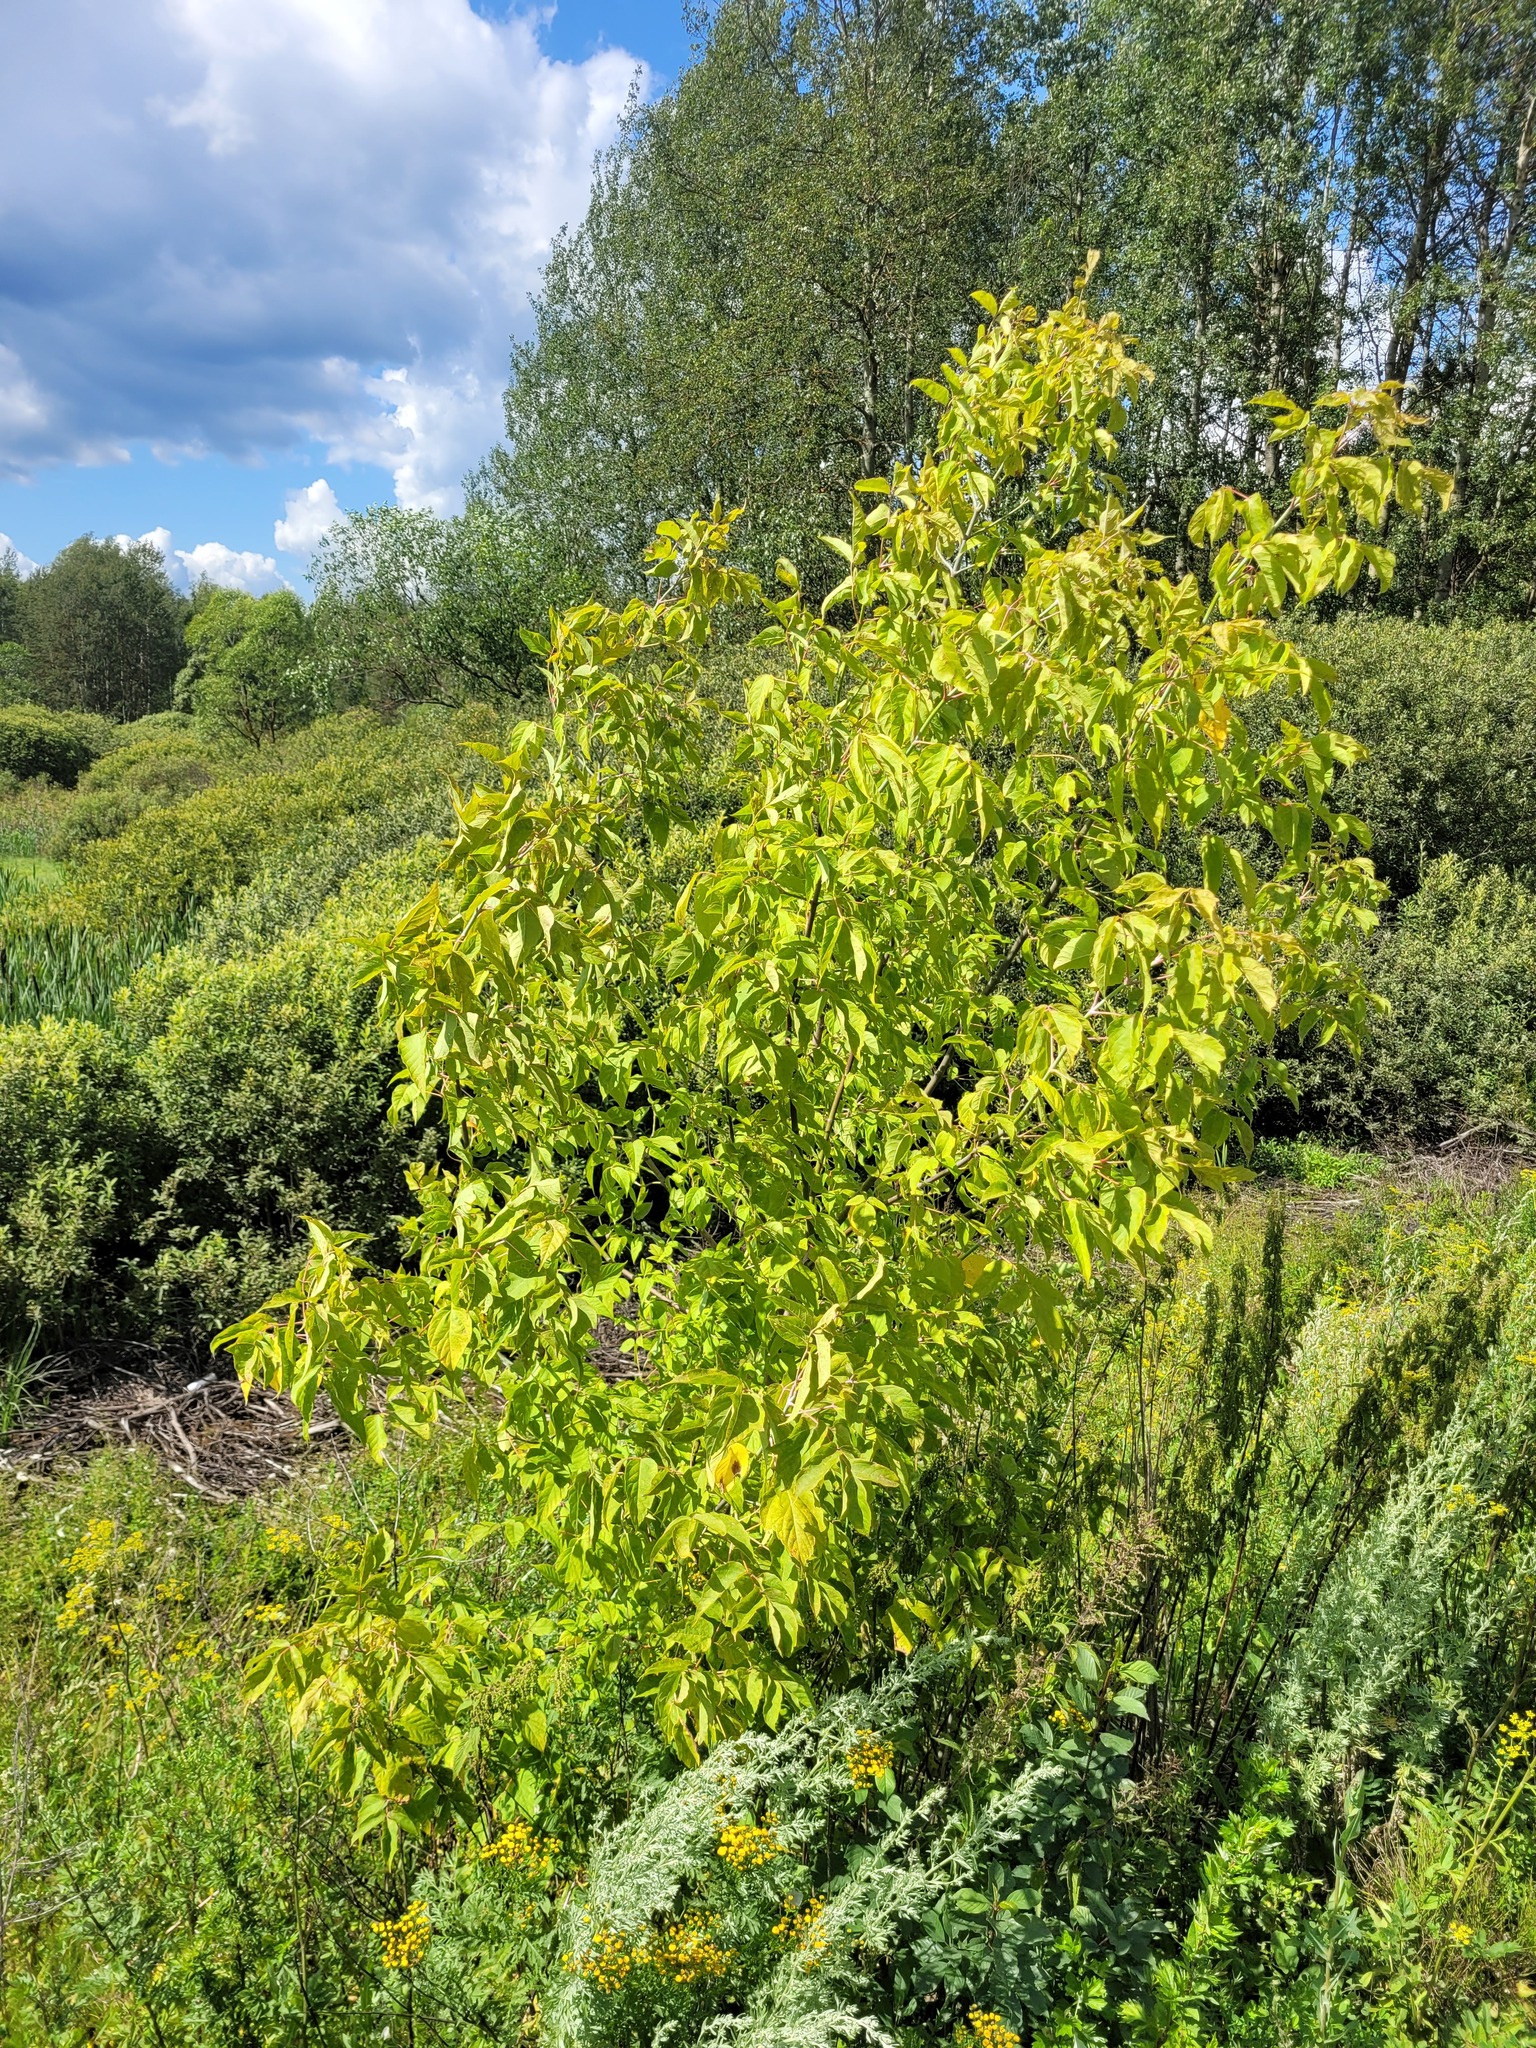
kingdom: Plantae
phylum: Tracheophyta
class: Magnoliopsida
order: Sapindales
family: Sapindaceae
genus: Acer
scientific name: Acer negundo
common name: Ashleaf maple
